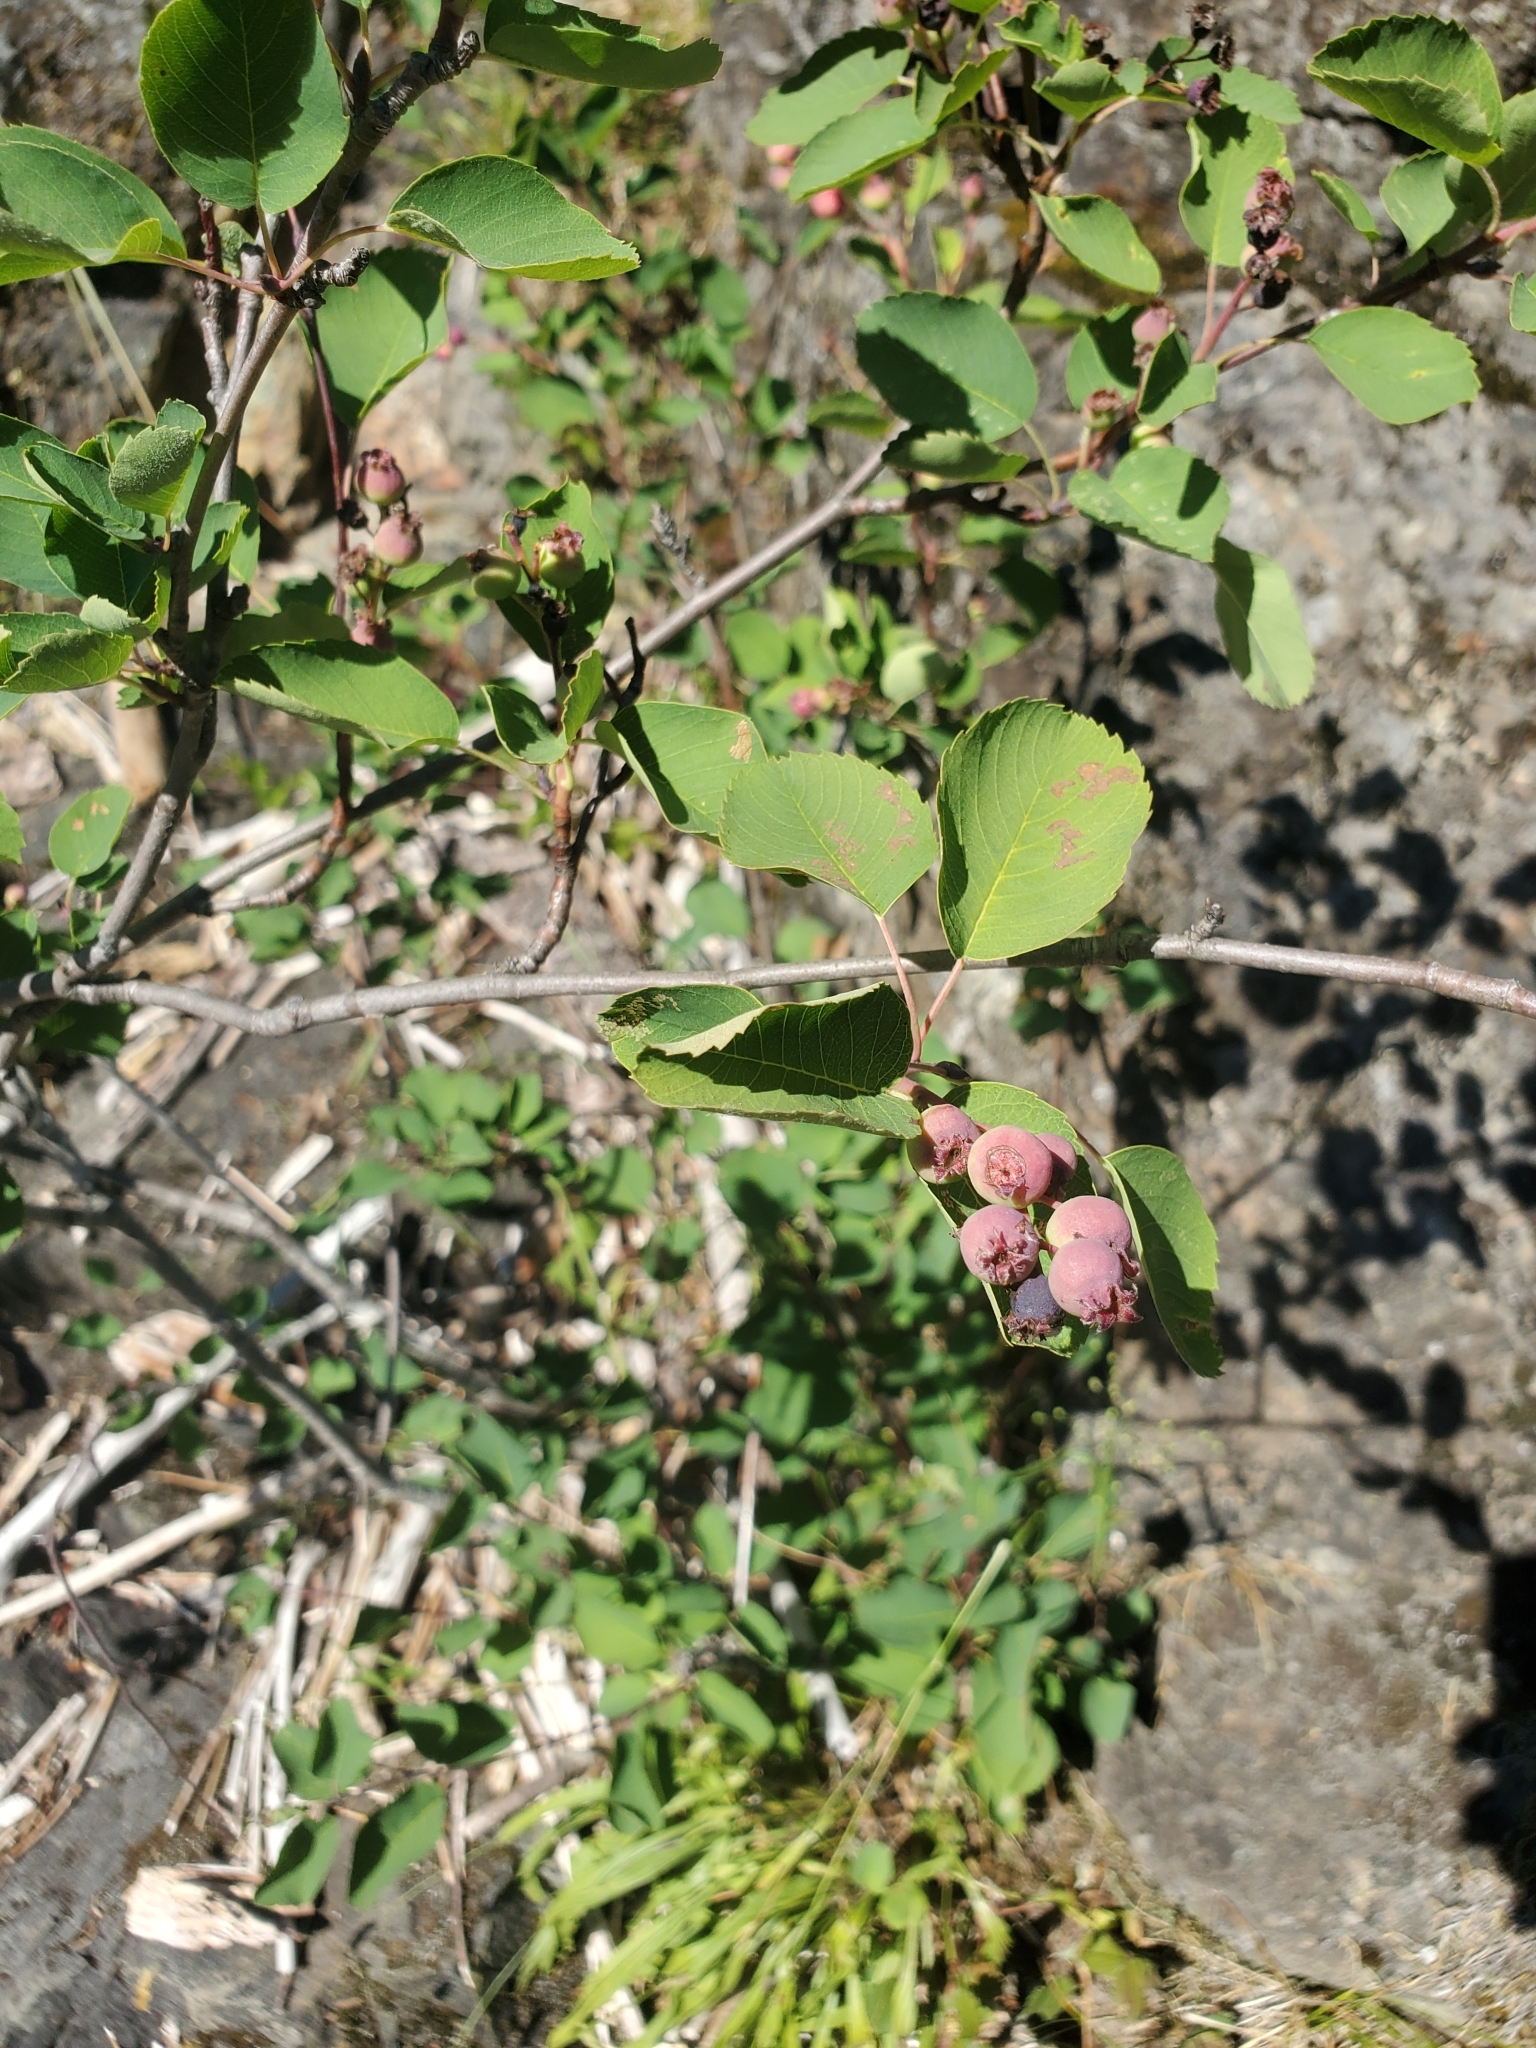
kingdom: Plantae
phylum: Tracheophyta
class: Magnoliopsida
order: Rosales
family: Rosaceae
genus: Amelanchier
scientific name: Amelanchier alnifolia
